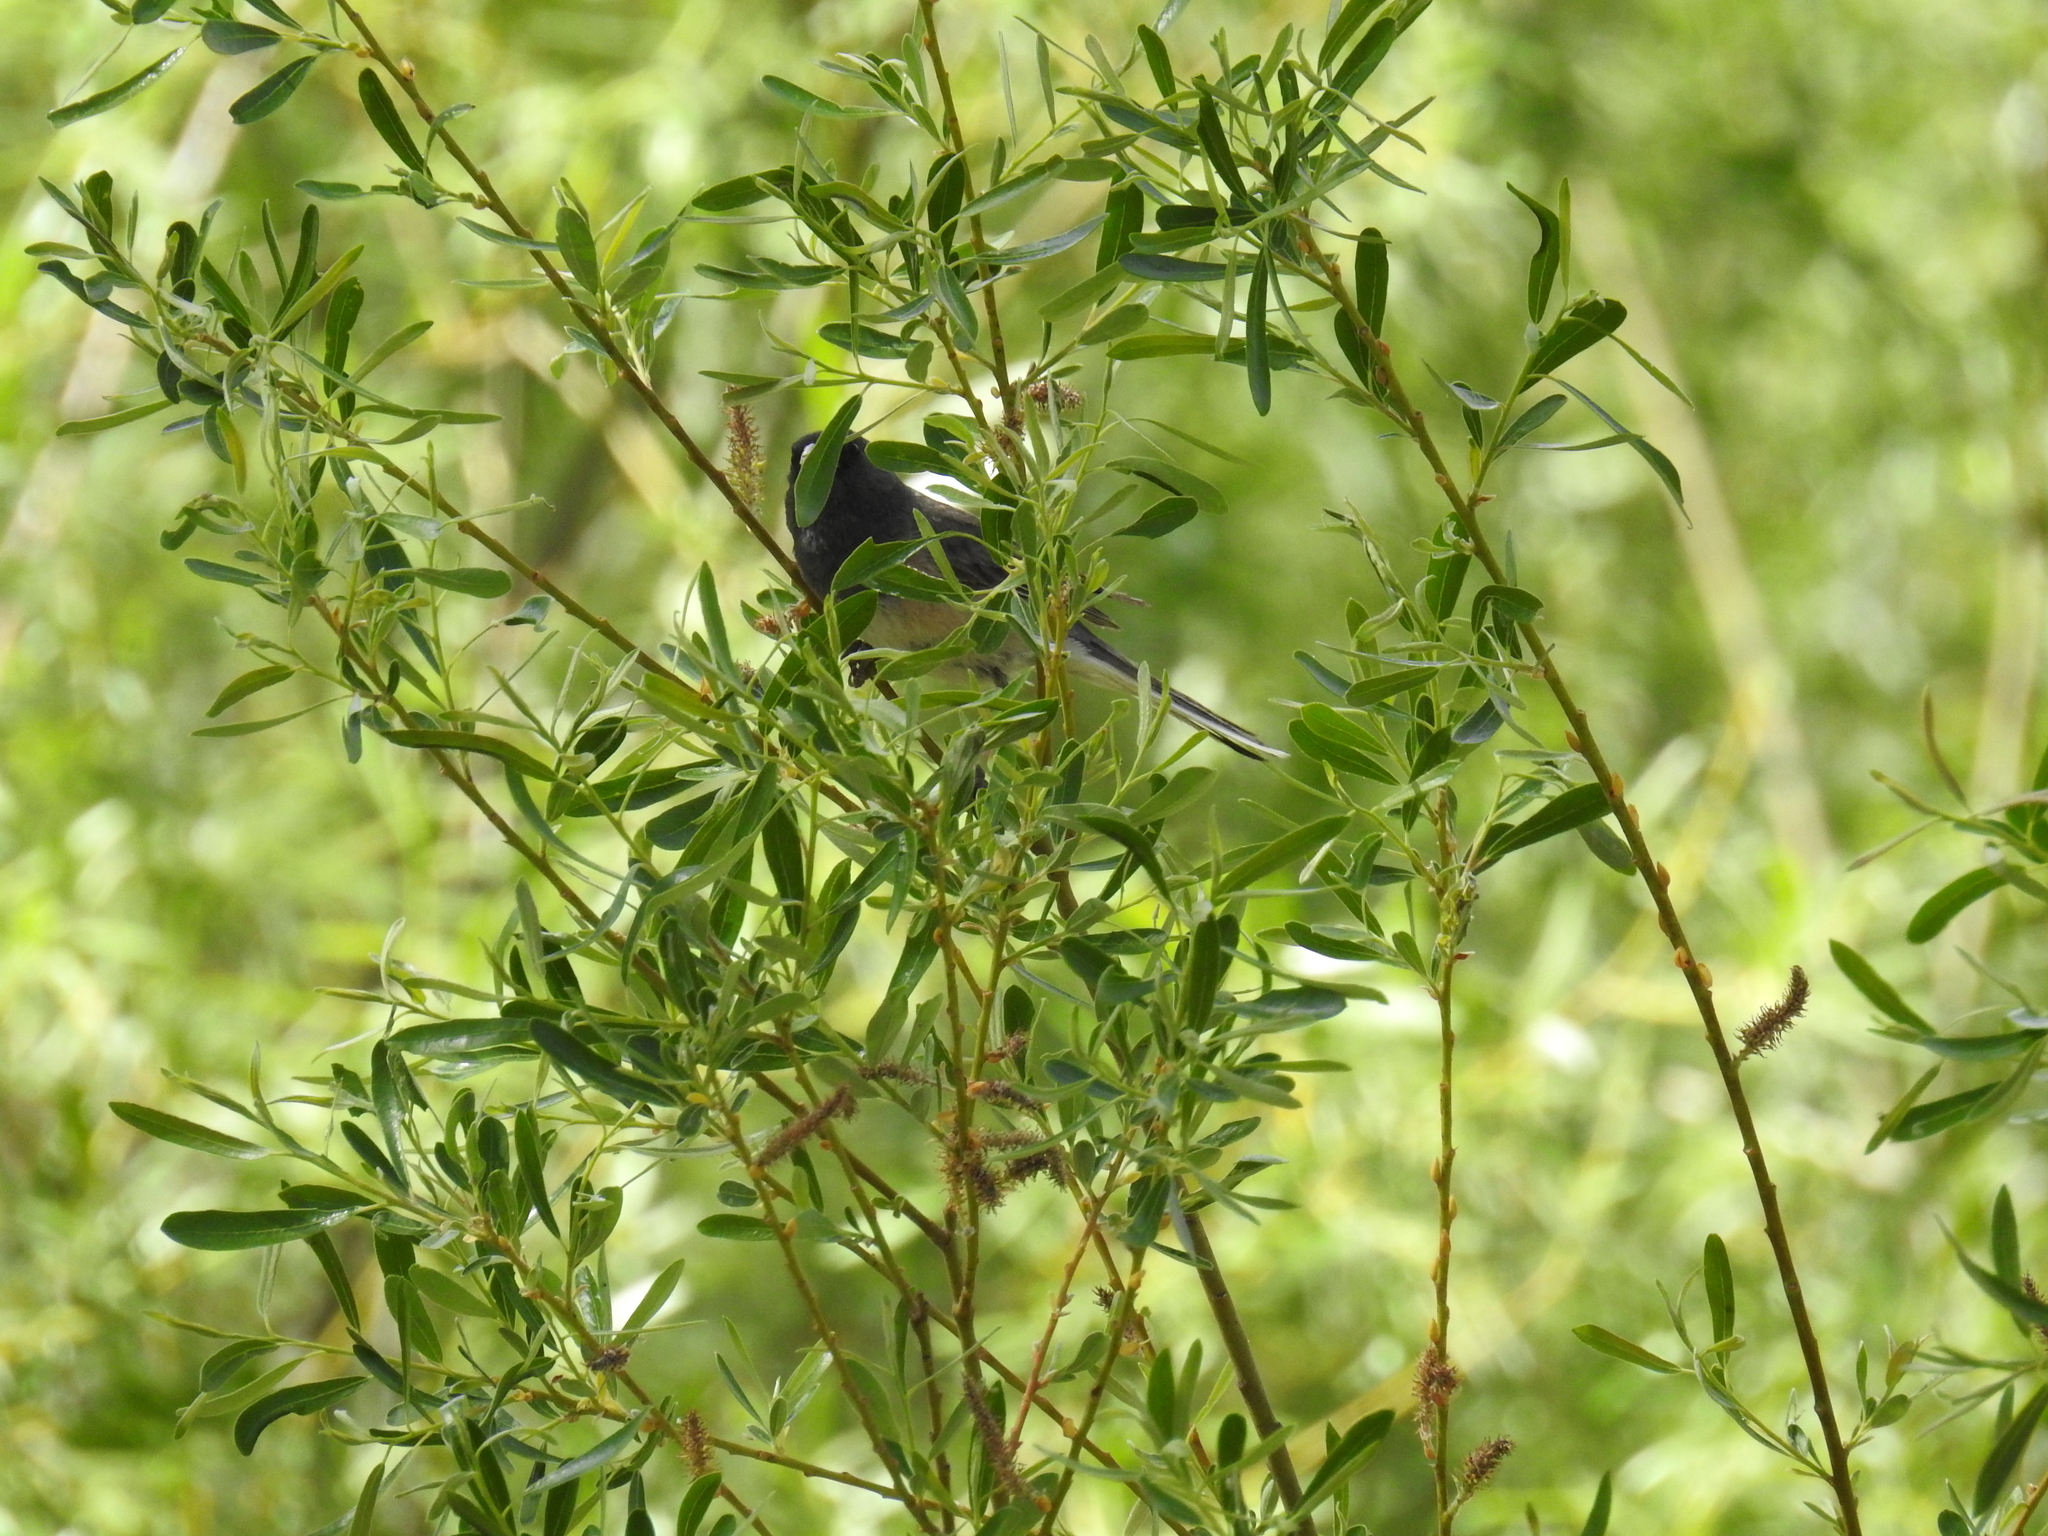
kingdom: Animalia
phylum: Chordata
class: Aves
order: Passeriformes
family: Passerellidae
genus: Junco
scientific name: Junco hyemalis
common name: Dark-eyed junco
